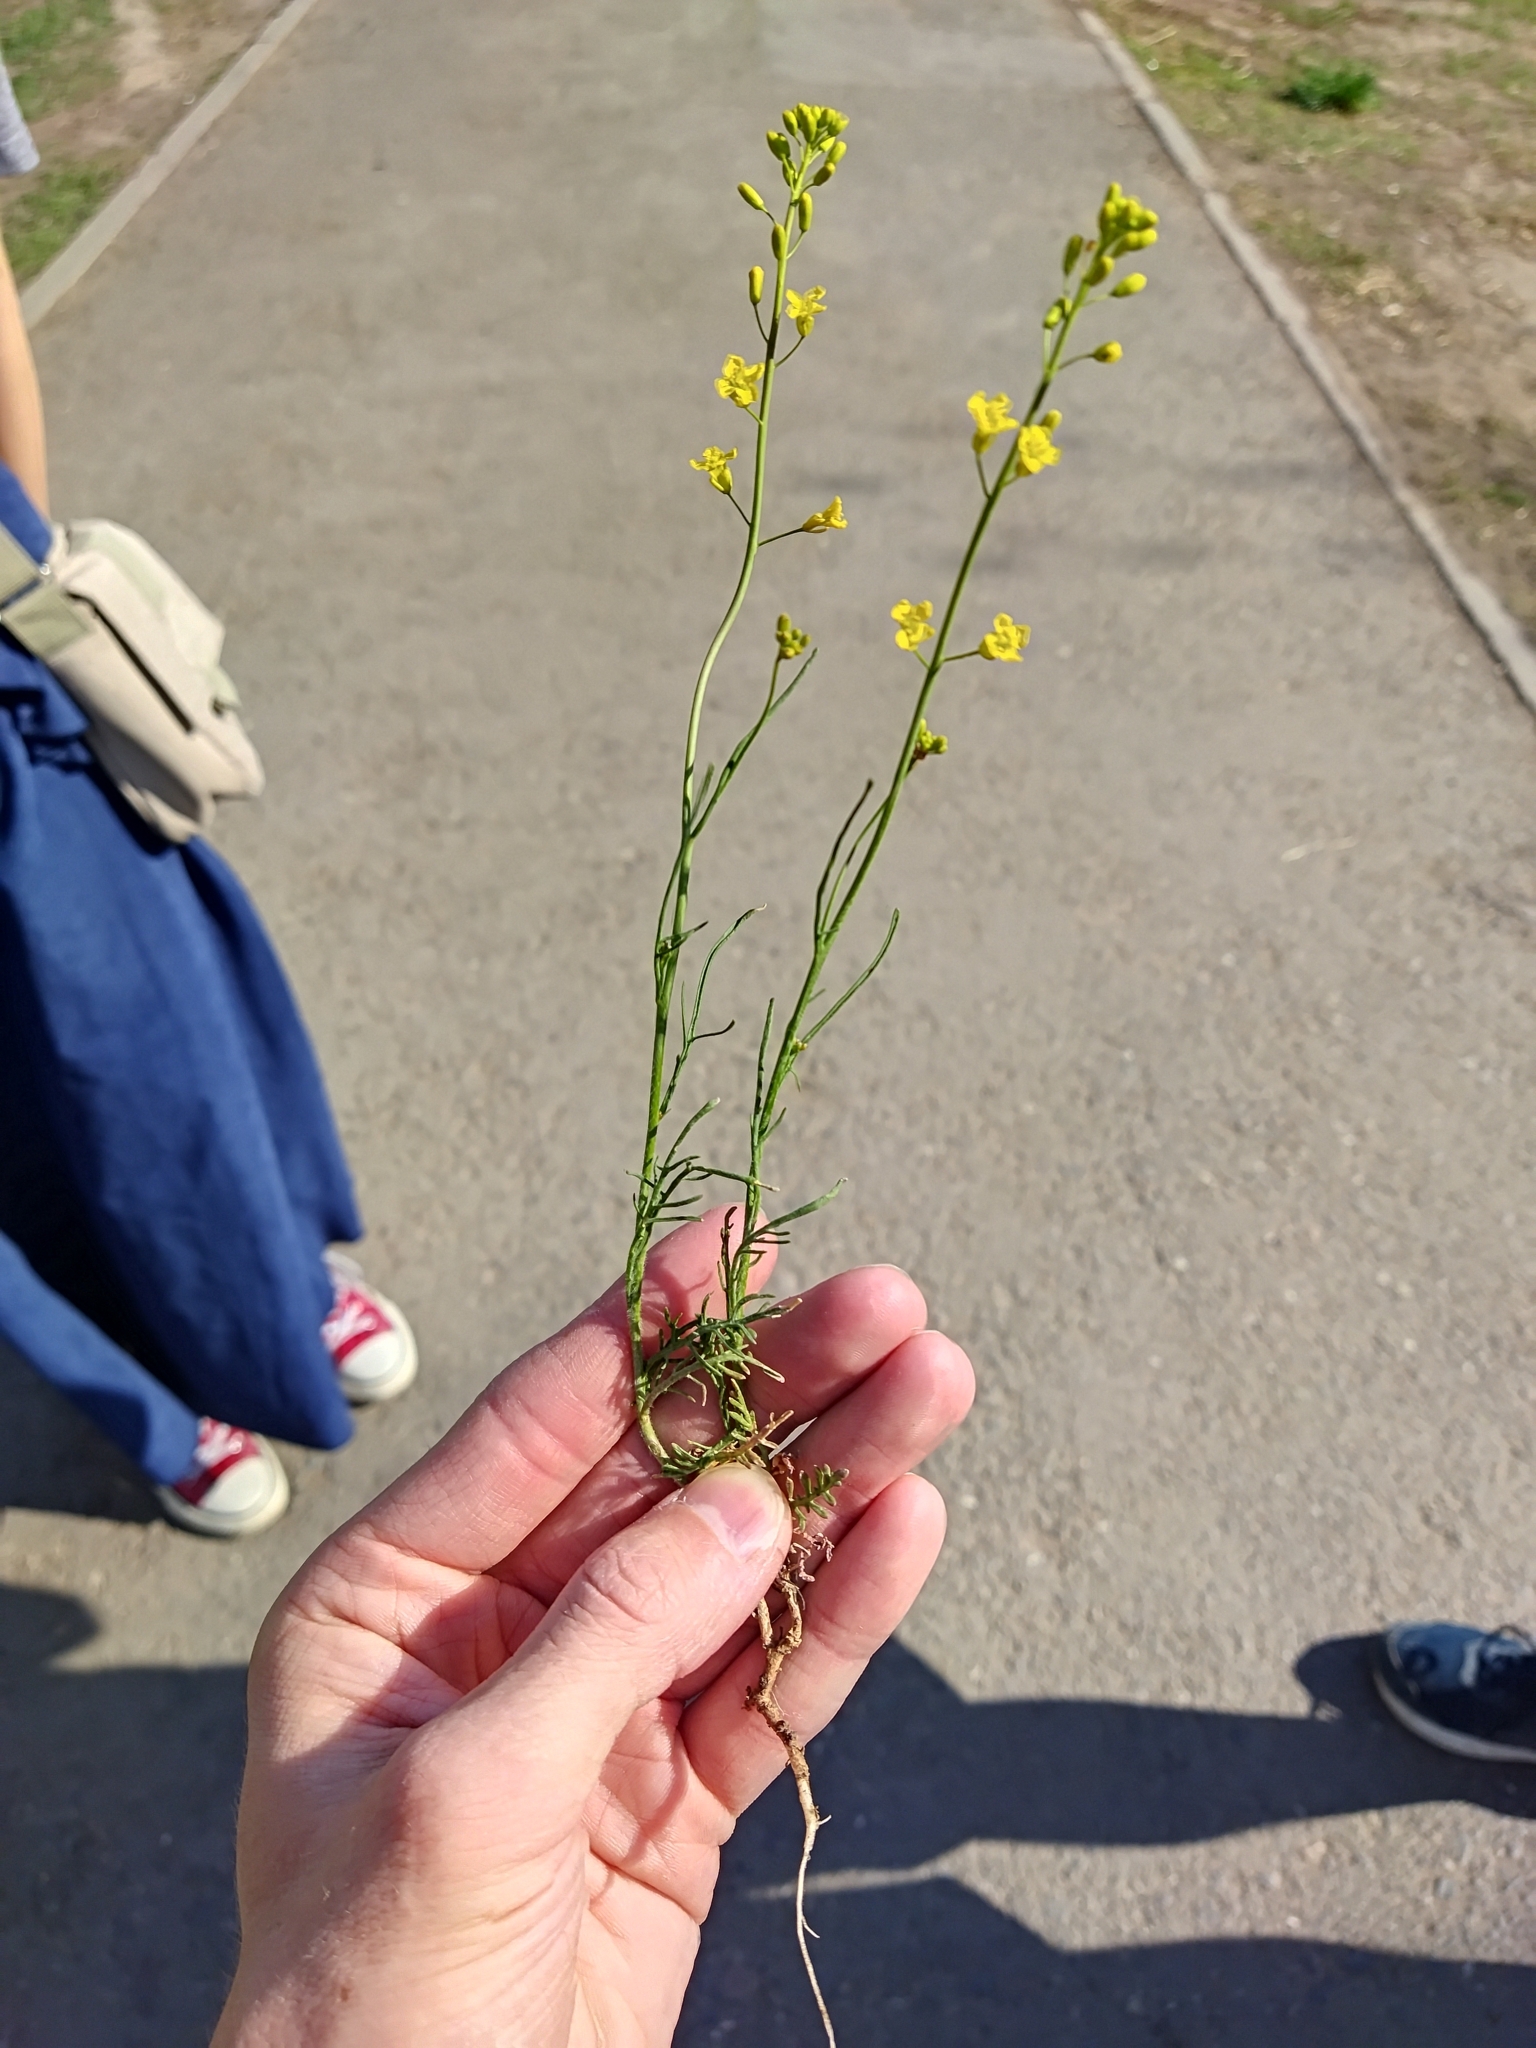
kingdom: Plantae
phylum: Tracheophyta
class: Magnoliopsida
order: Brassicales
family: Brassicaceae
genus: Sisymbrium
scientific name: Sisymbrium polymorphum
